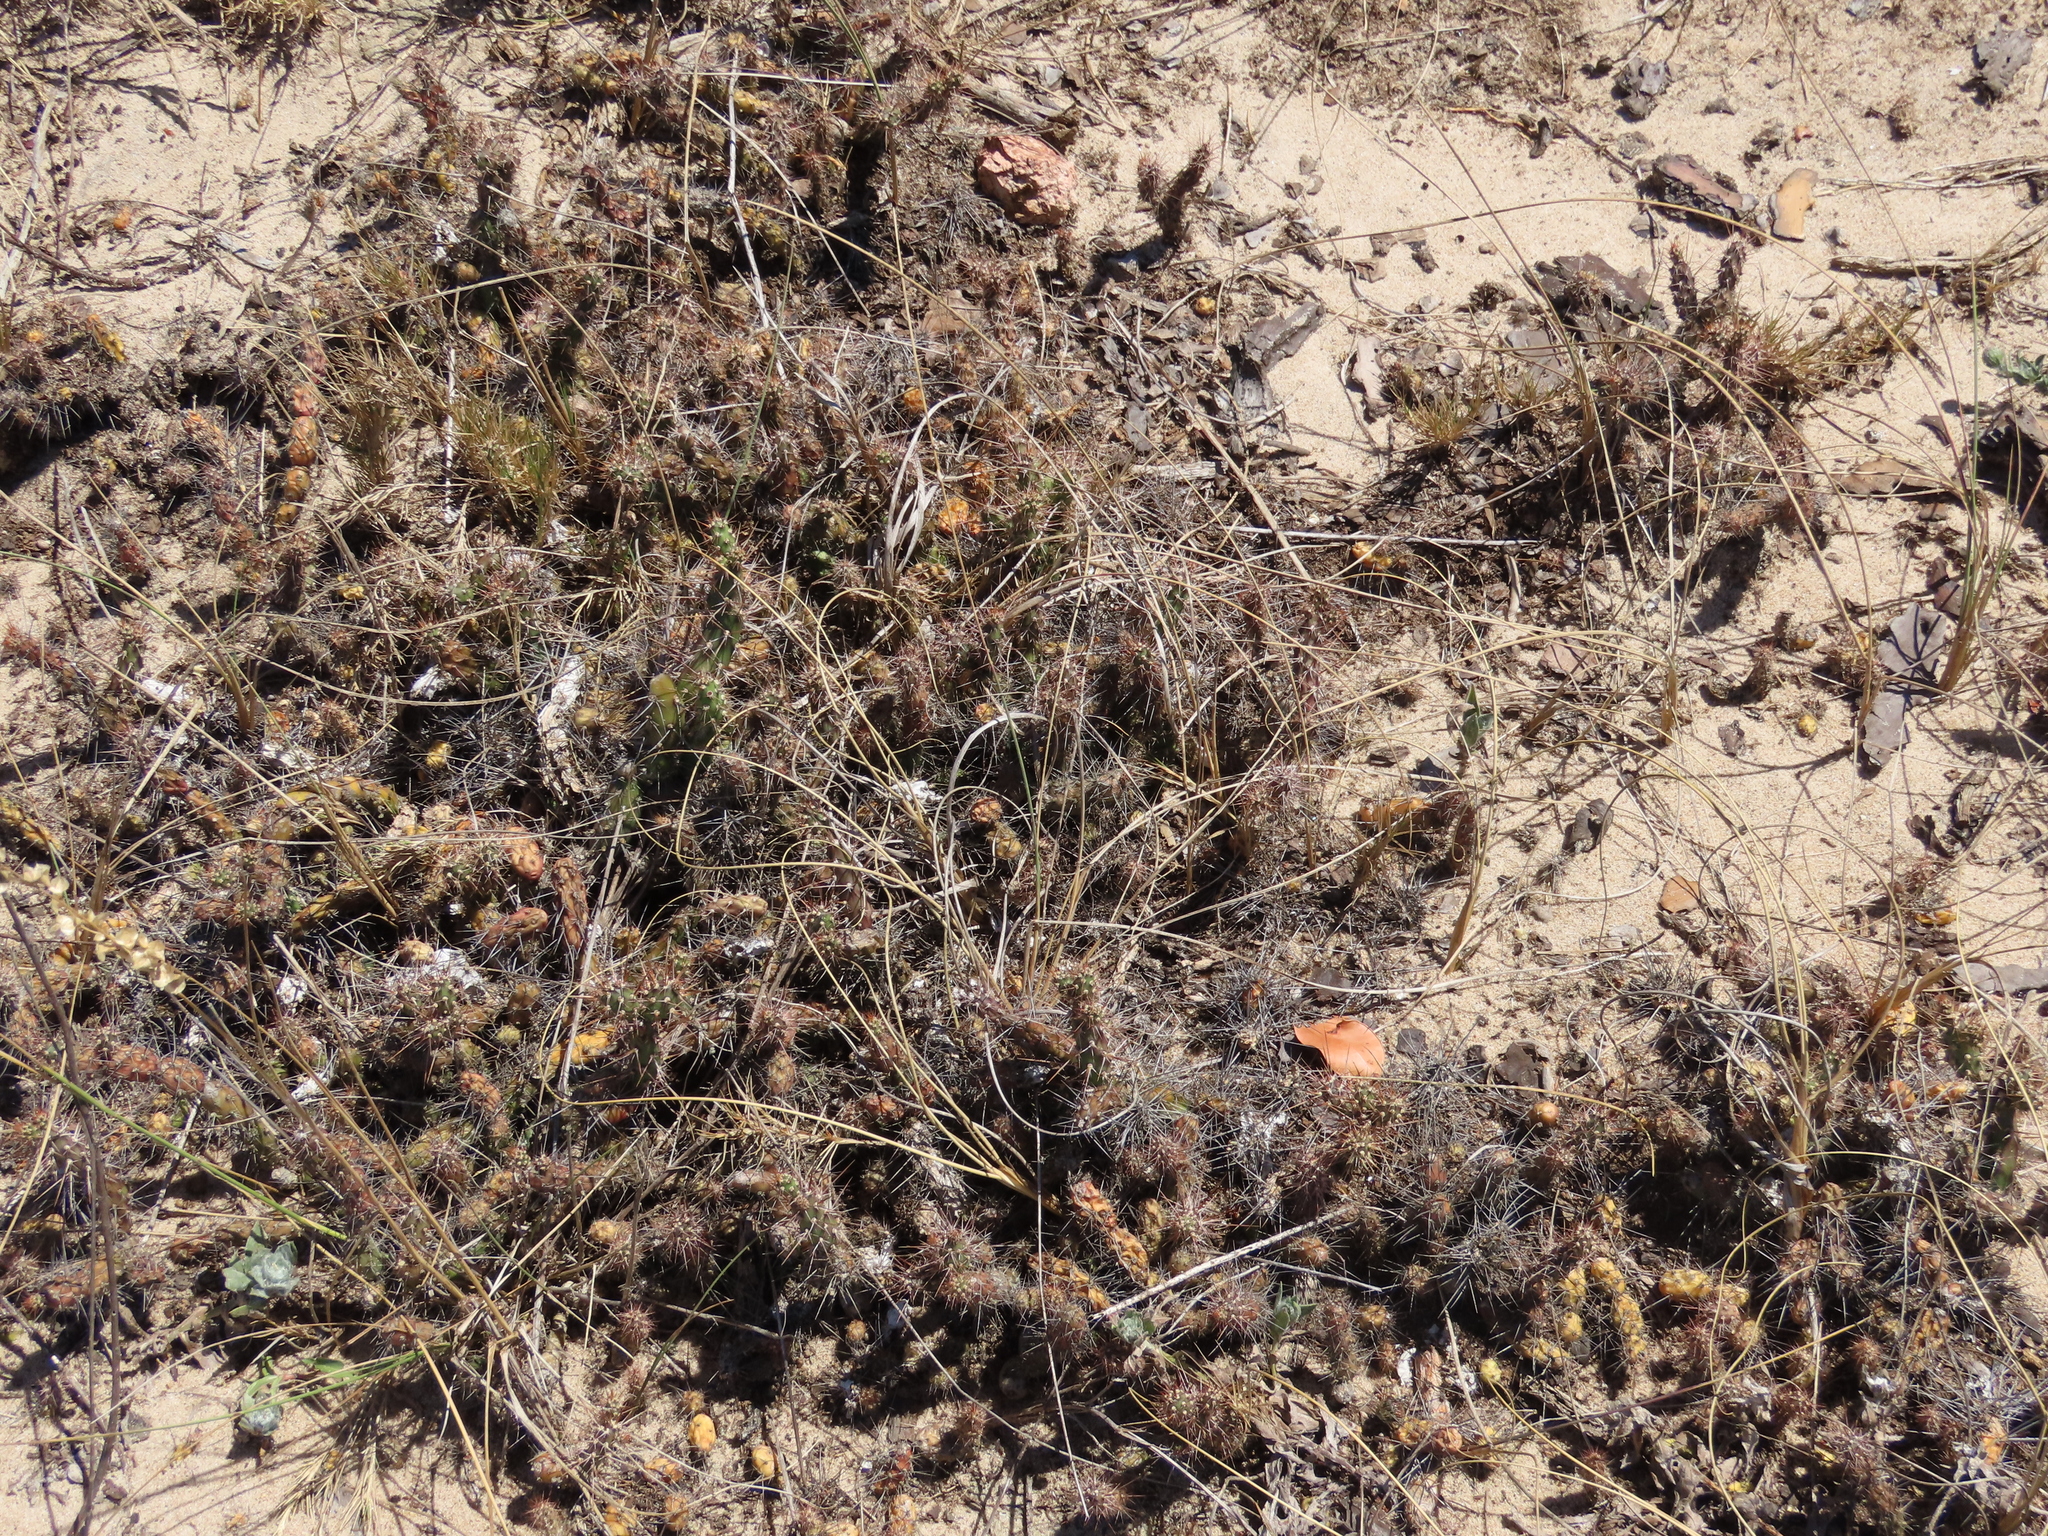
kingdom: Plantae
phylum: Tracheophyta
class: Magnoliopsida
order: Caryophyllales
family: Cactaceae
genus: Opuntia
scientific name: Opuntia aurantiaca
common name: Jointed pricklypear
